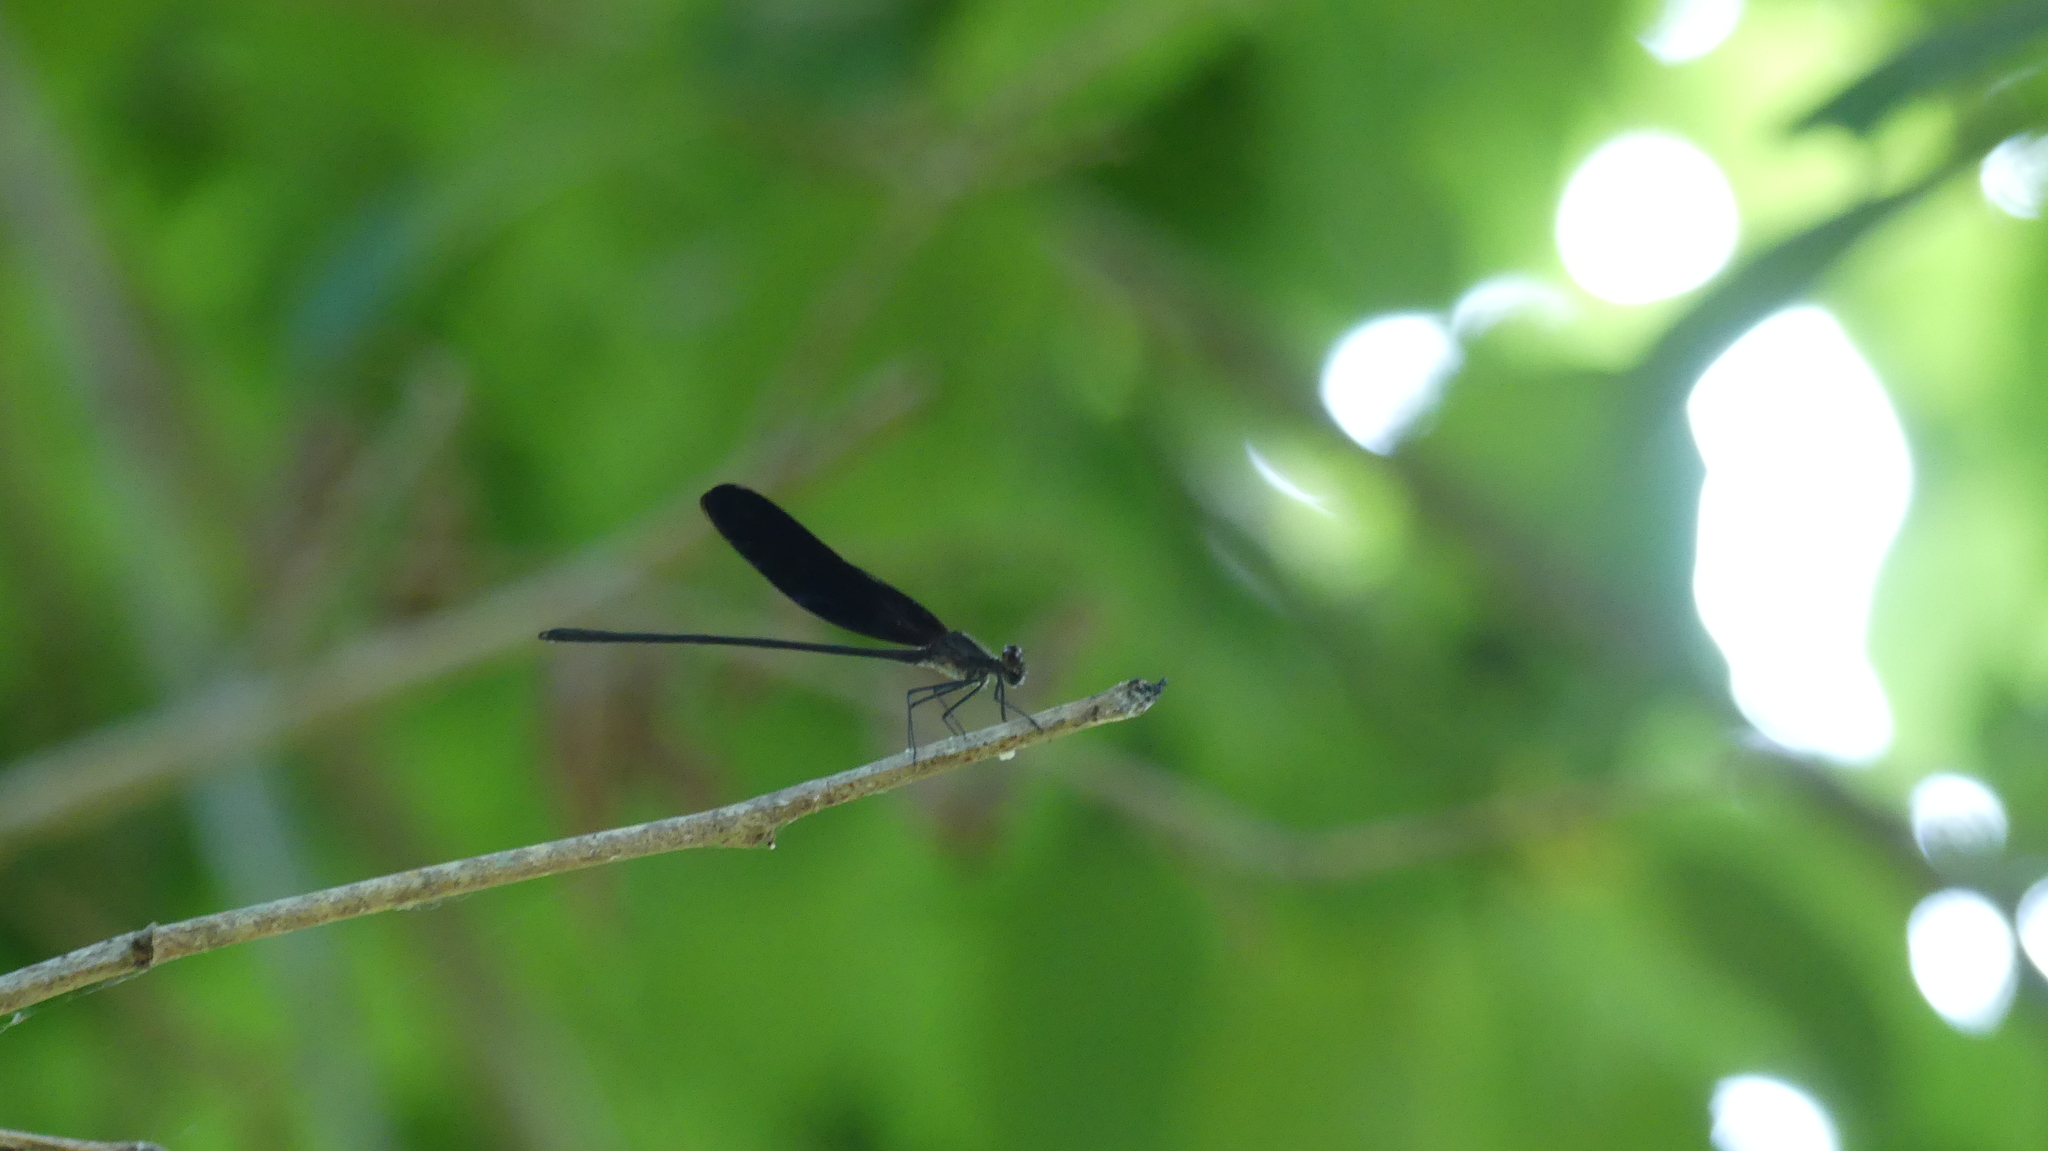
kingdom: Animalia
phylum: Arthropoda
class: Insecta
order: Odonata
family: Calopterygidae
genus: Hetaerina
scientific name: Hetaerina titia
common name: Smoky rubyspot
